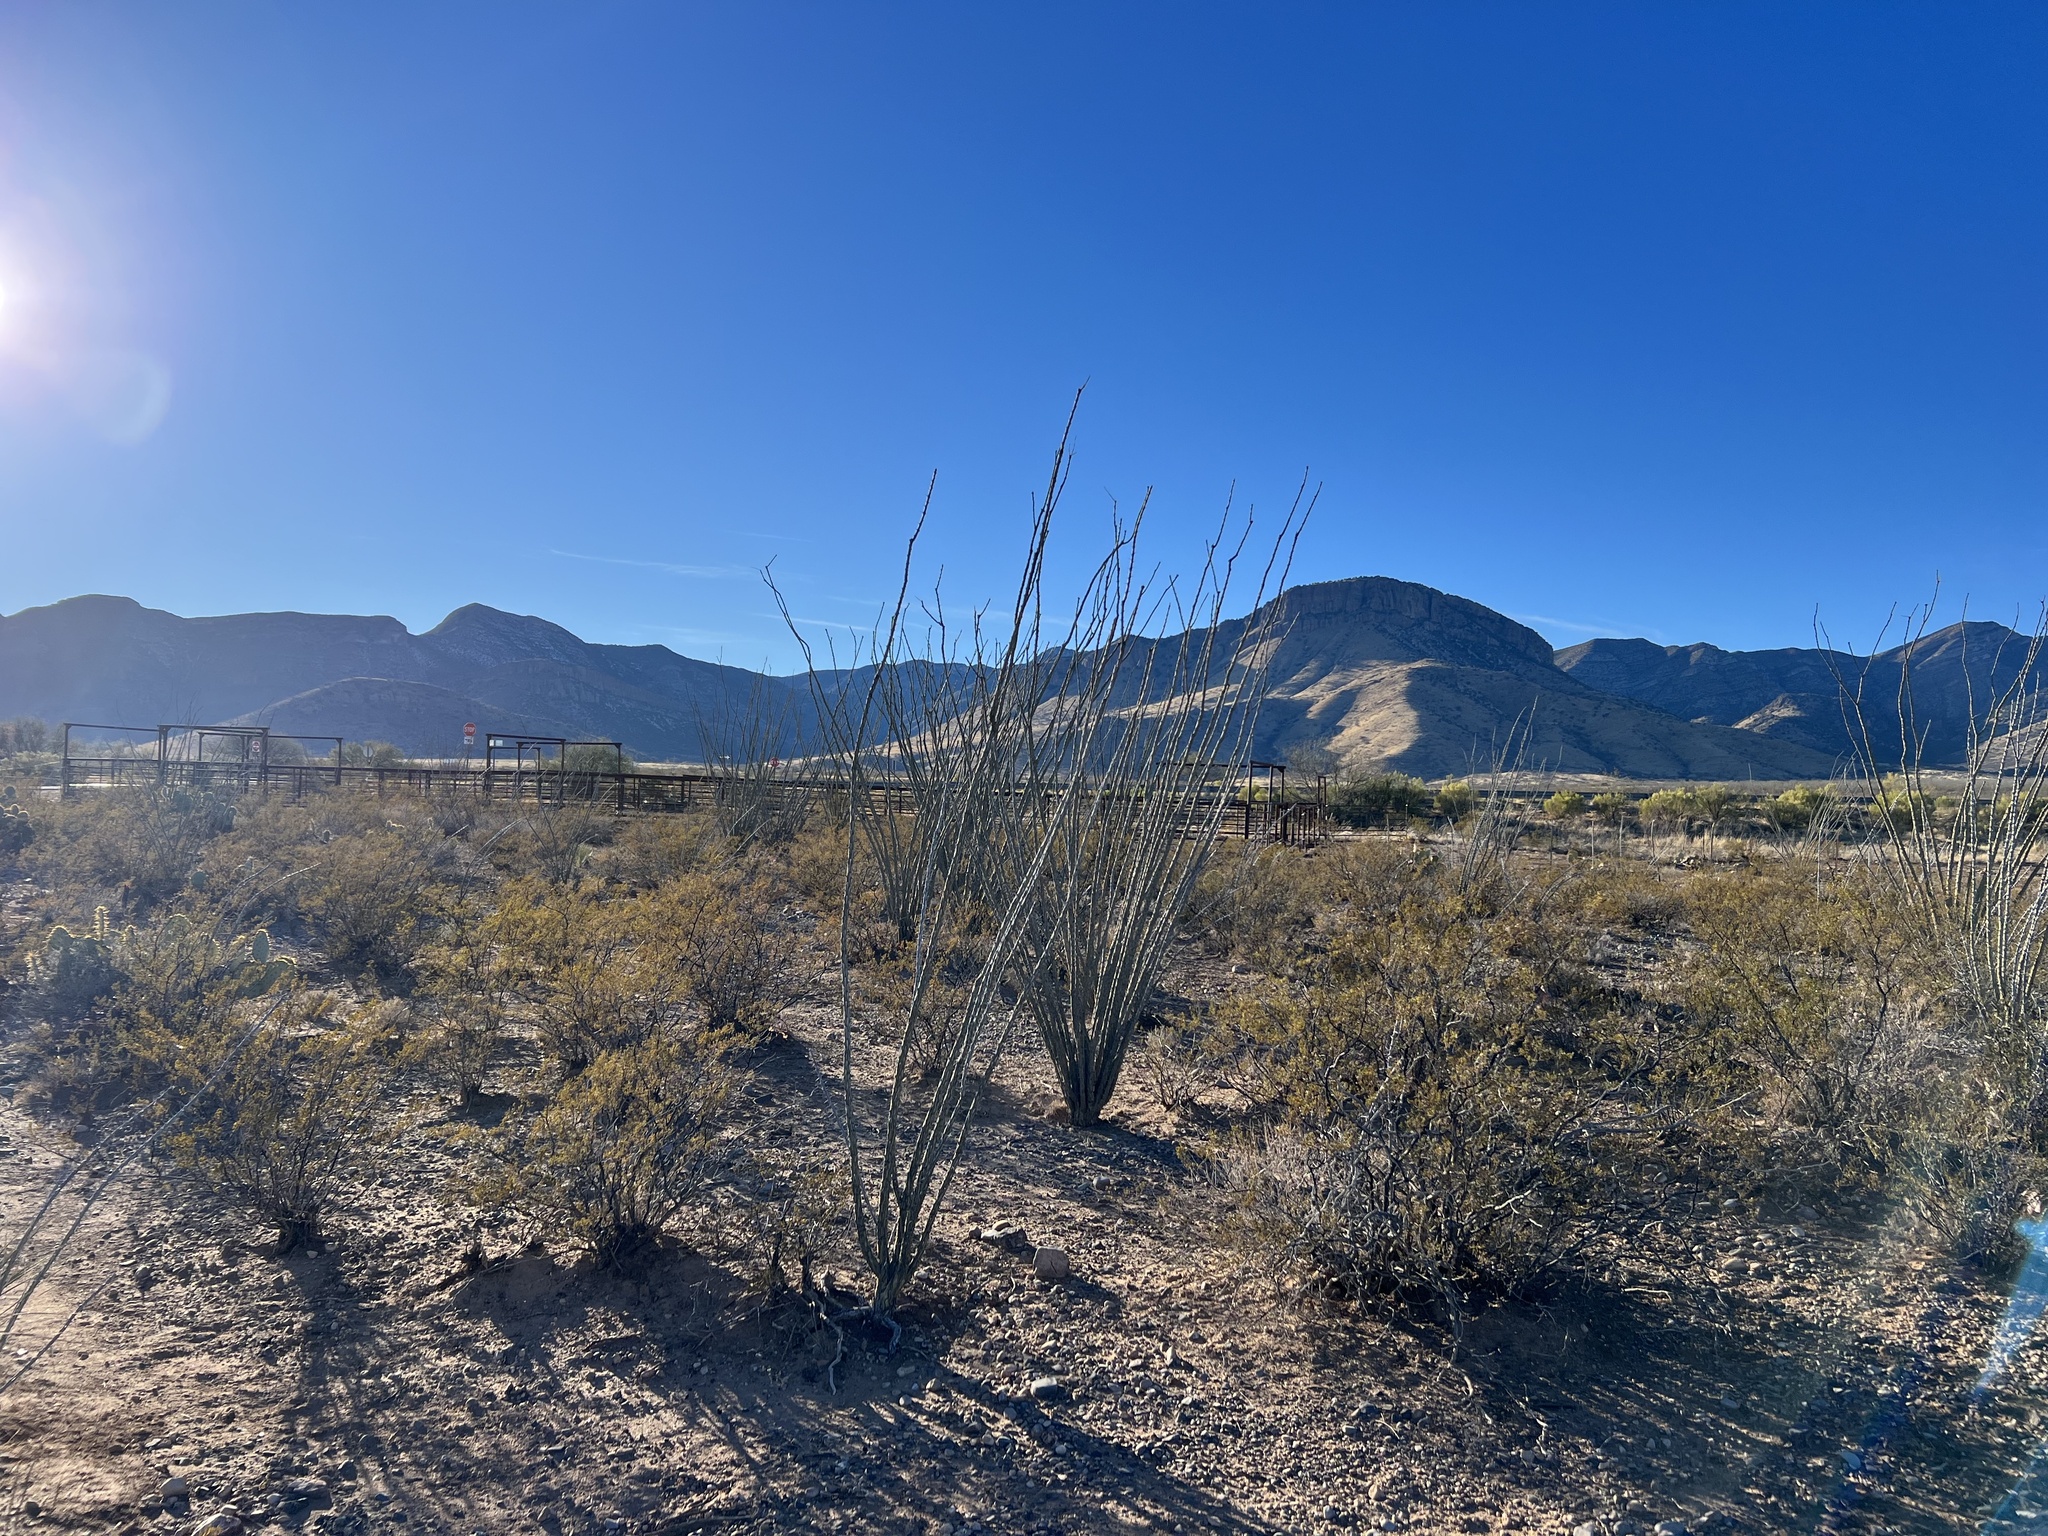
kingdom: Plantae
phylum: Tracheophyta
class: Magnoliopsida
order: Ericales
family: Fouquieriaceae
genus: Fouquieria
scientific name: Fouquieria splendens
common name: Vine-cactus
